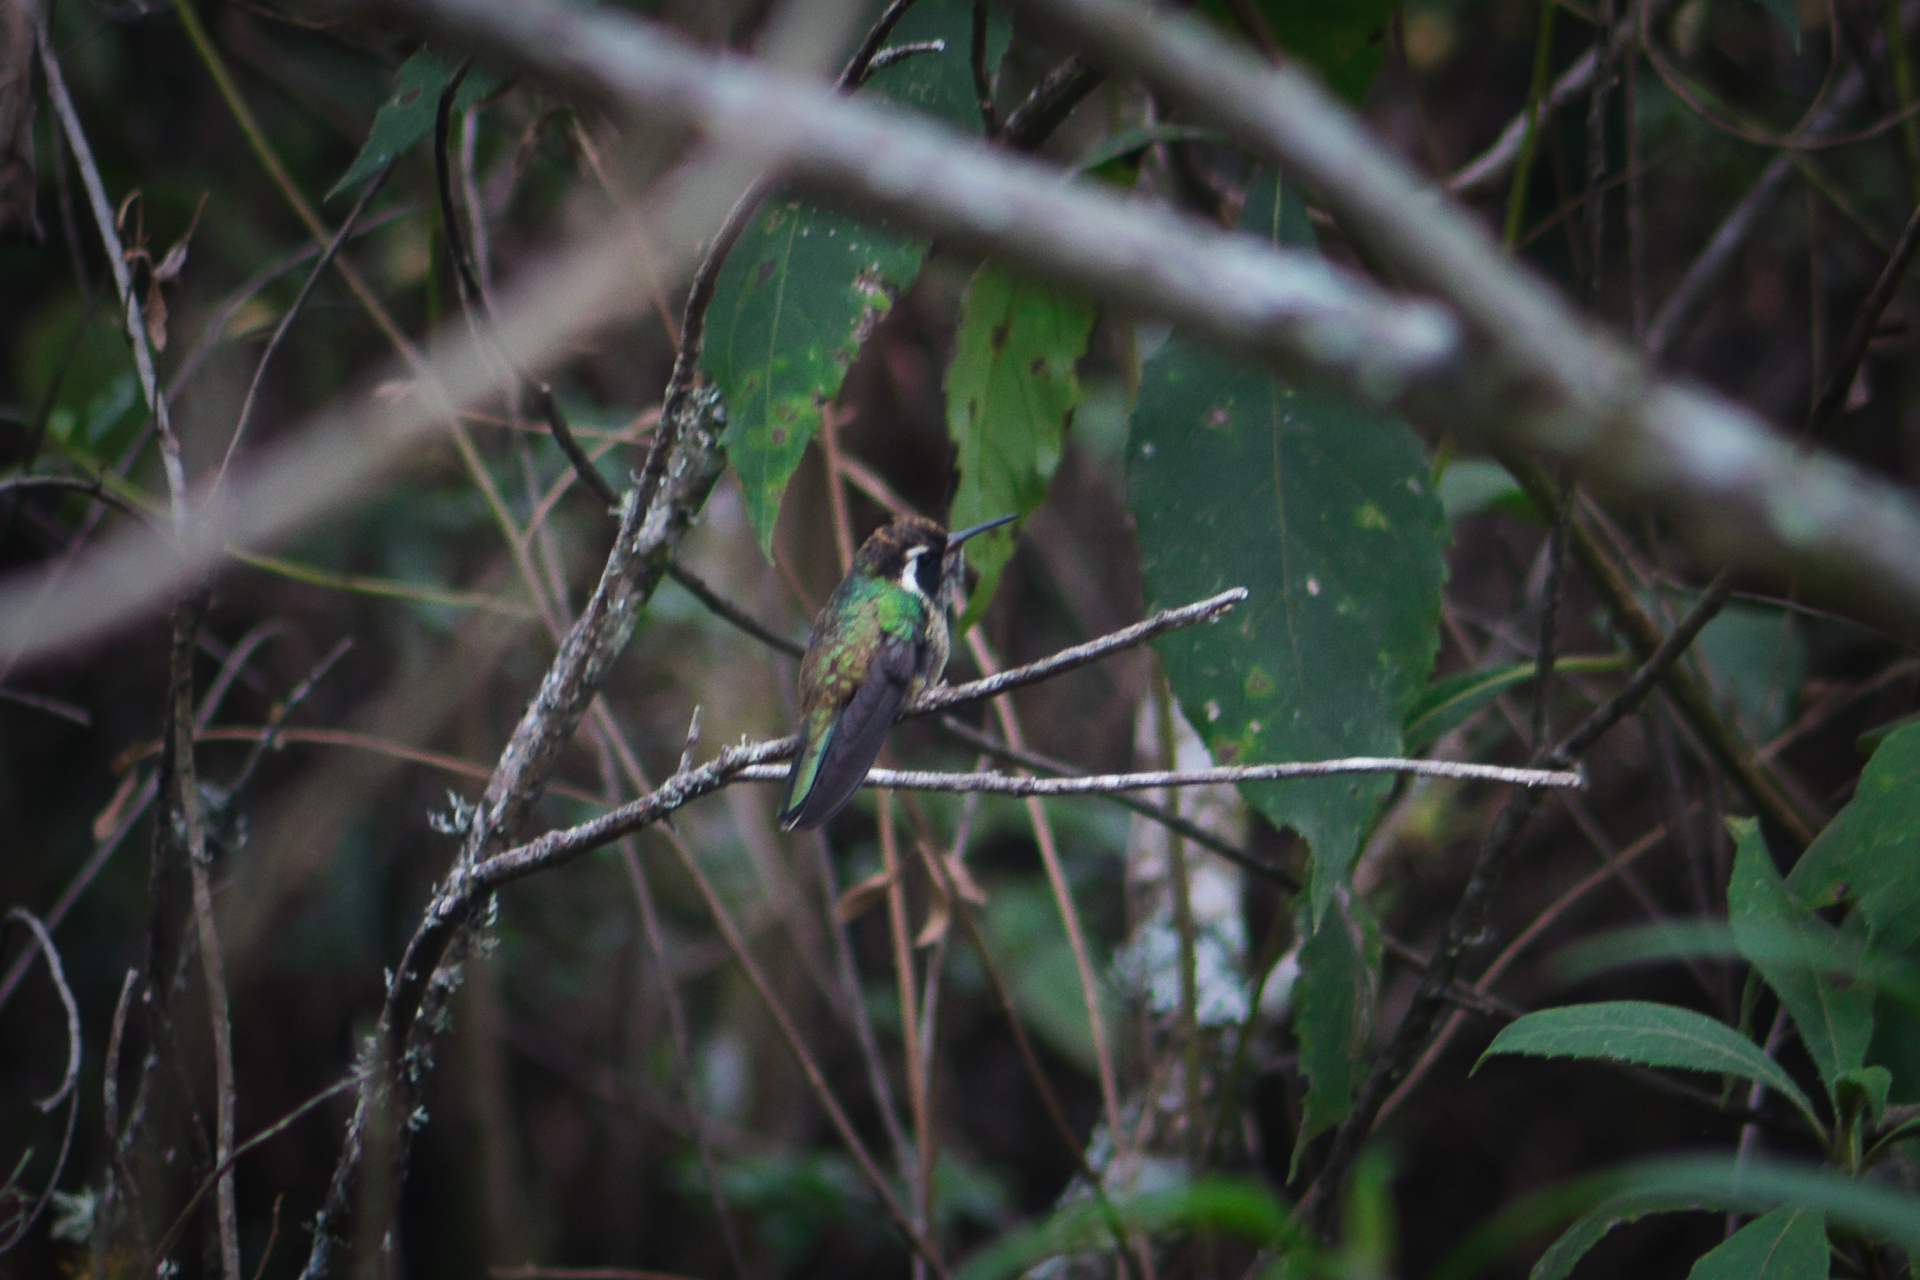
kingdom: Animalia
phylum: Chordata
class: Aves
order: Apodiformes
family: Trochilidae
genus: Basilinna
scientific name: Basilinna leucotis
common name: White-eared hummingbird
